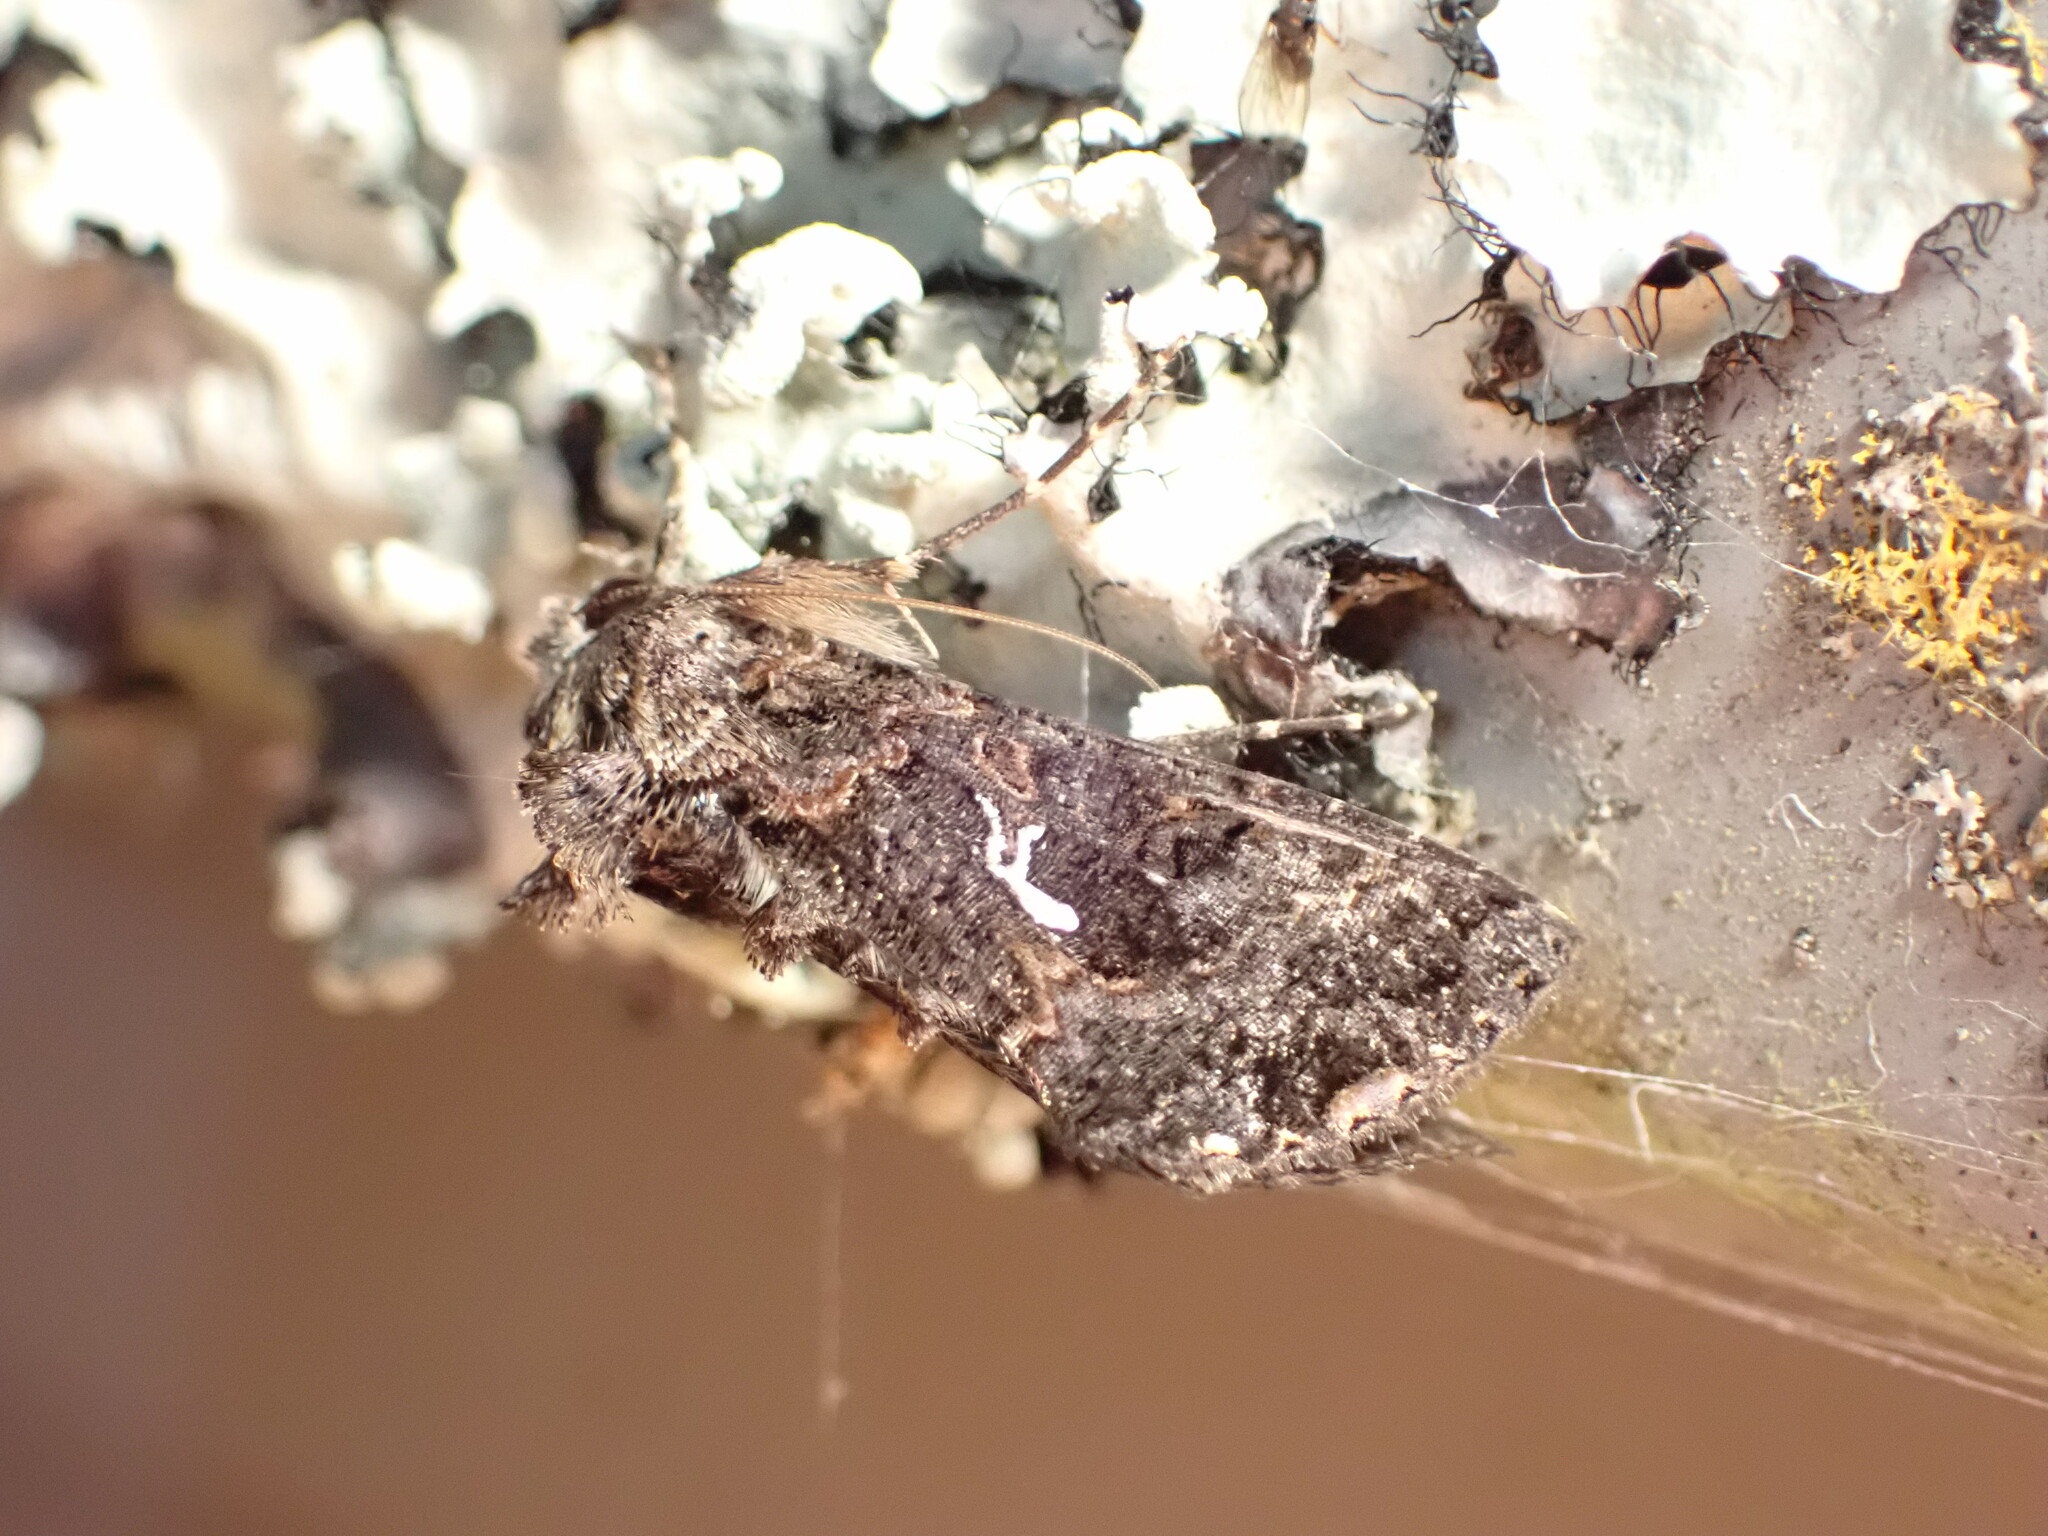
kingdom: Animalia
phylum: Arthropoda
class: Insecta
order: Lepidoptera
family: Noctuidae
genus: Ctenoplusia
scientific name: Ctenoplusia limbirena
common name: Scar bank gem
